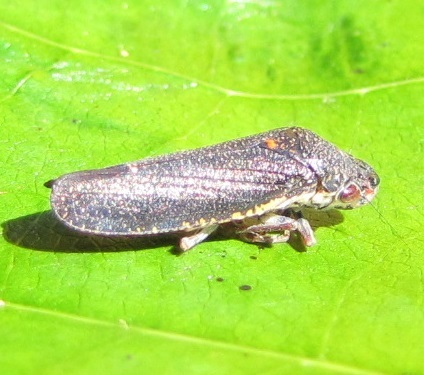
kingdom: Animalia
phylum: Arthropoda
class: Insecta
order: Hemiptera
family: Cicadellidae
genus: Paraulacizes
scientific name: Paraulacizes irrorata
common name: Speckled sharpshooter
